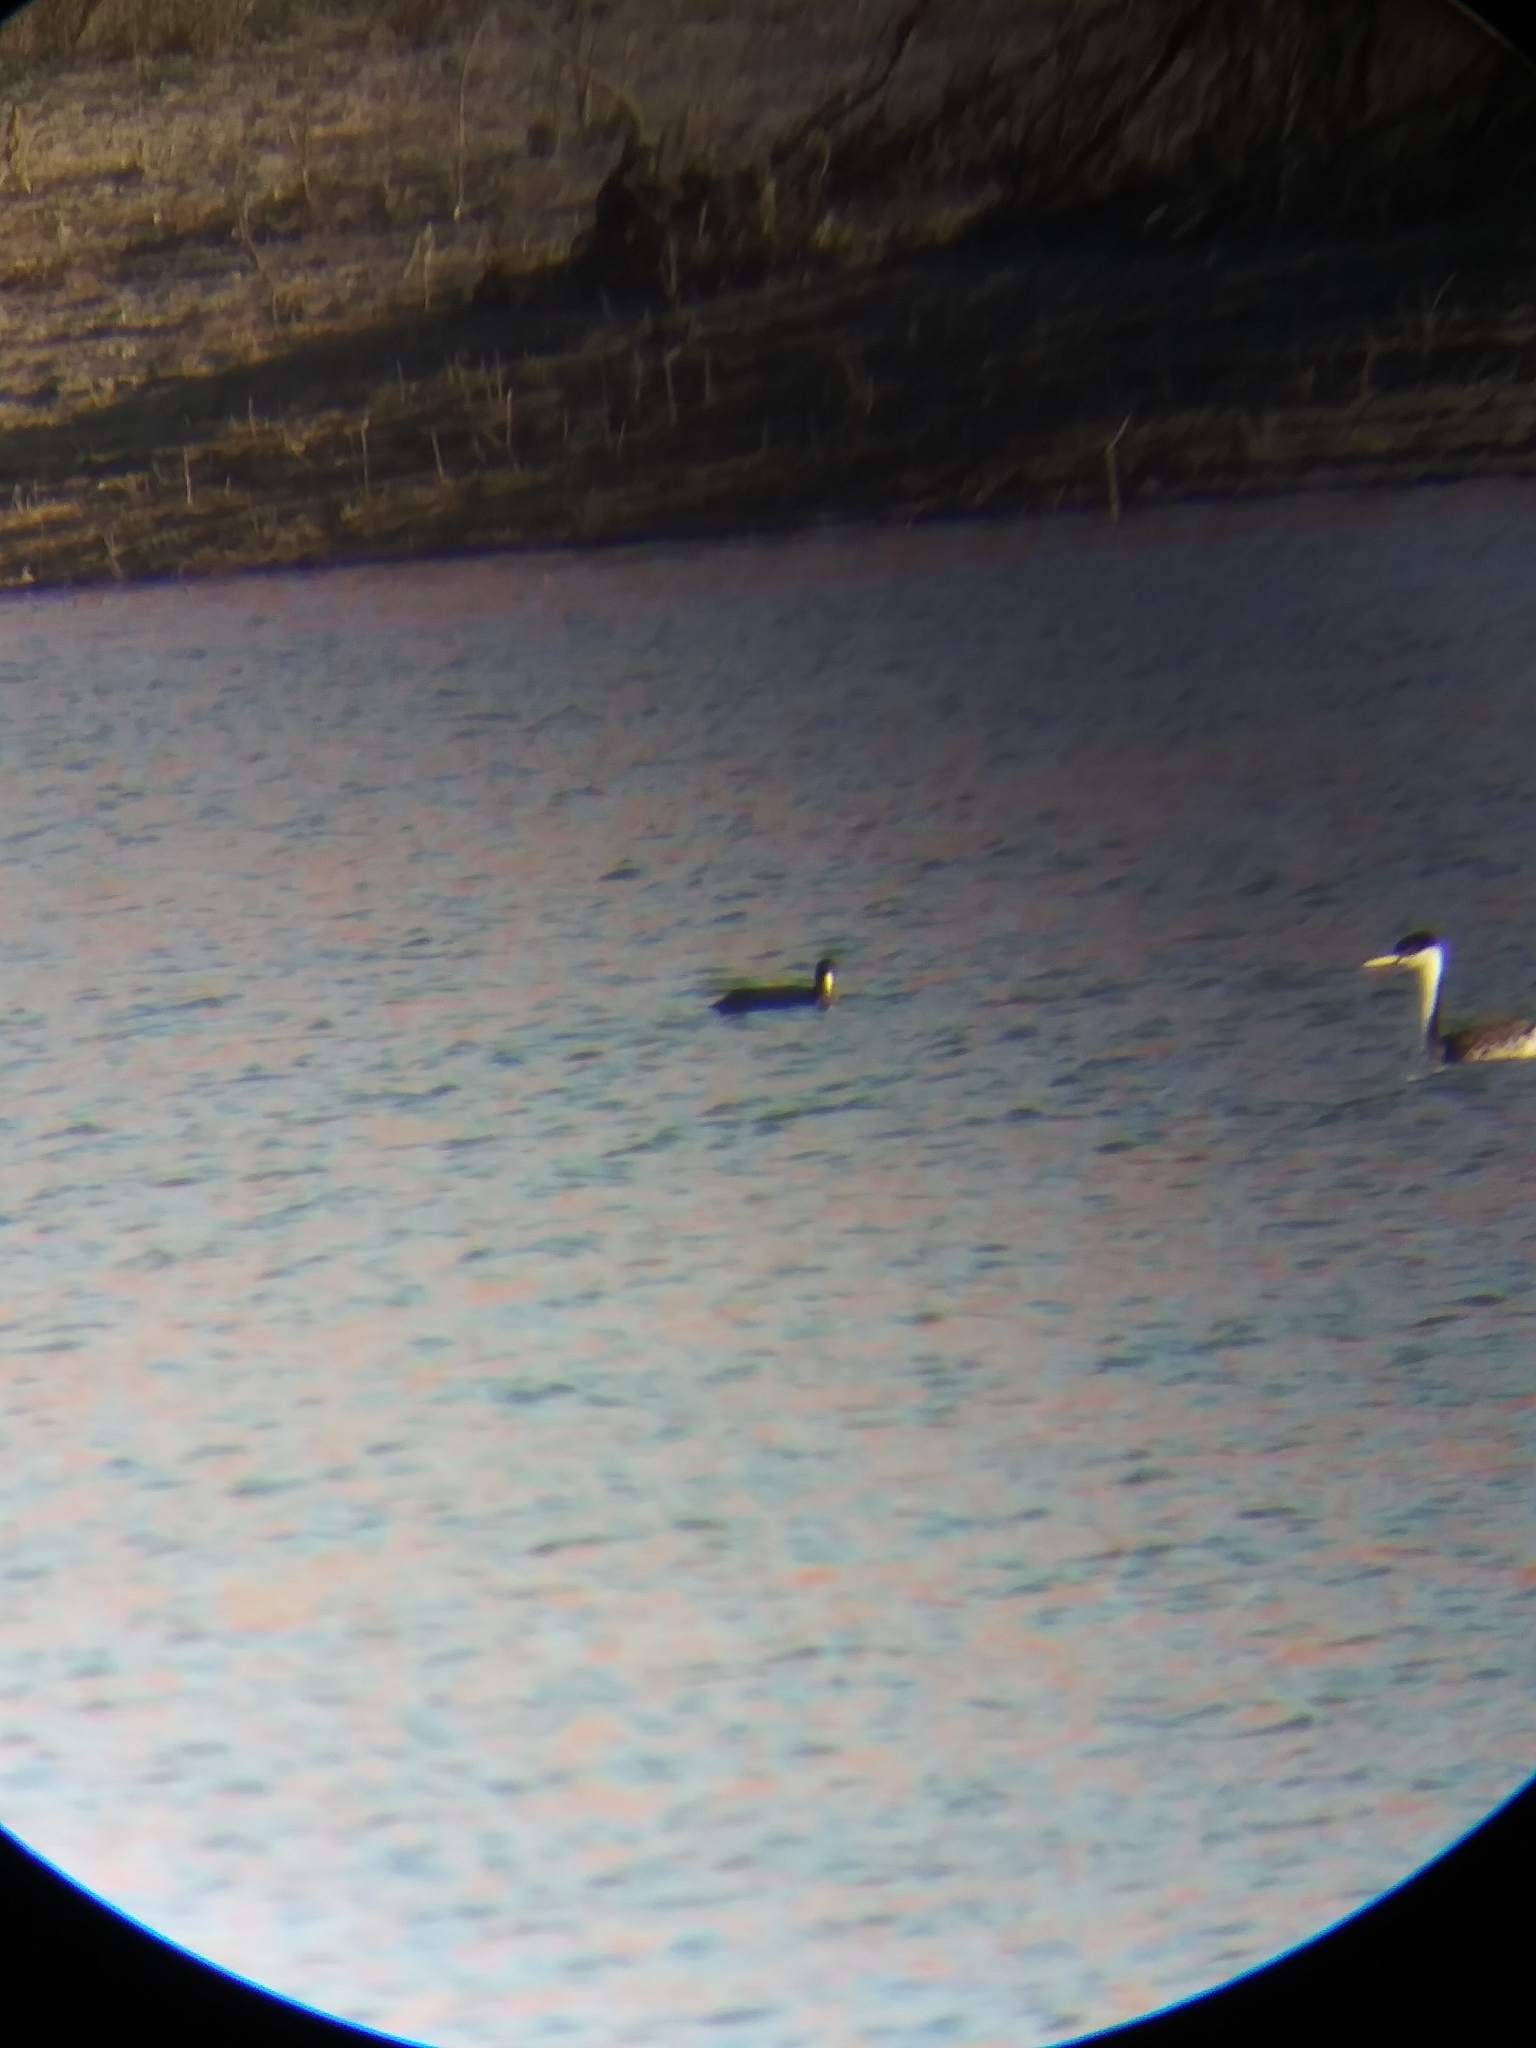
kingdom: Animalia
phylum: Chordata
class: Aves
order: Gruiformes
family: Rallidae
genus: Fulica
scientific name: Fulica americana
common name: American coot
